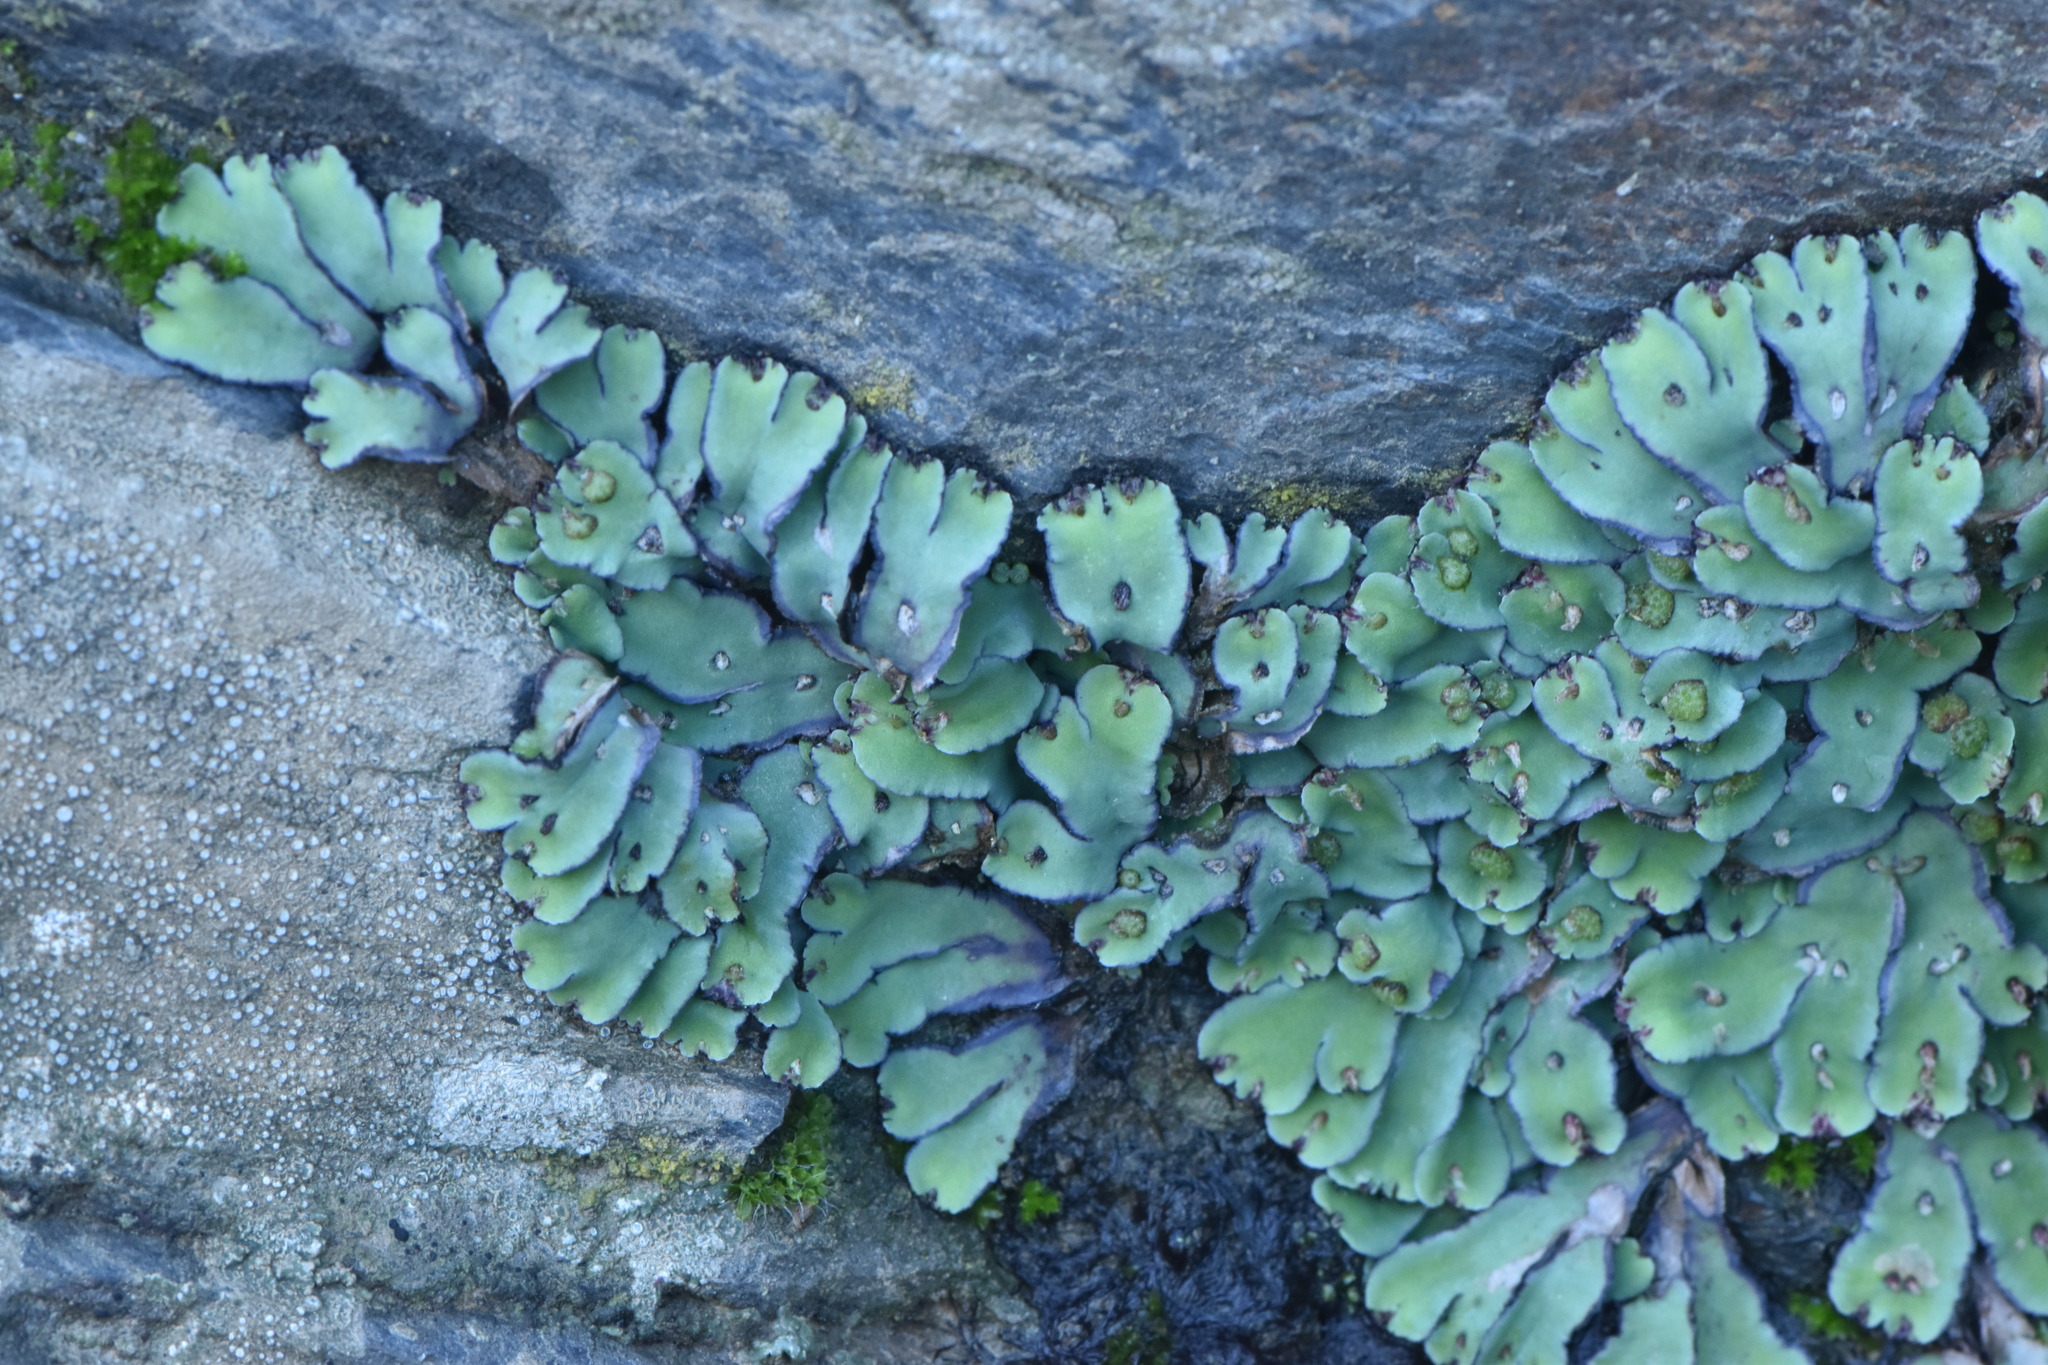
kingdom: Plantae
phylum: Marchantiophyta
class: Marchantiopsida
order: Marchantiales
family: Aytoniaceae
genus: Plagiochasma
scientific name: Plagiochasma rupestre
